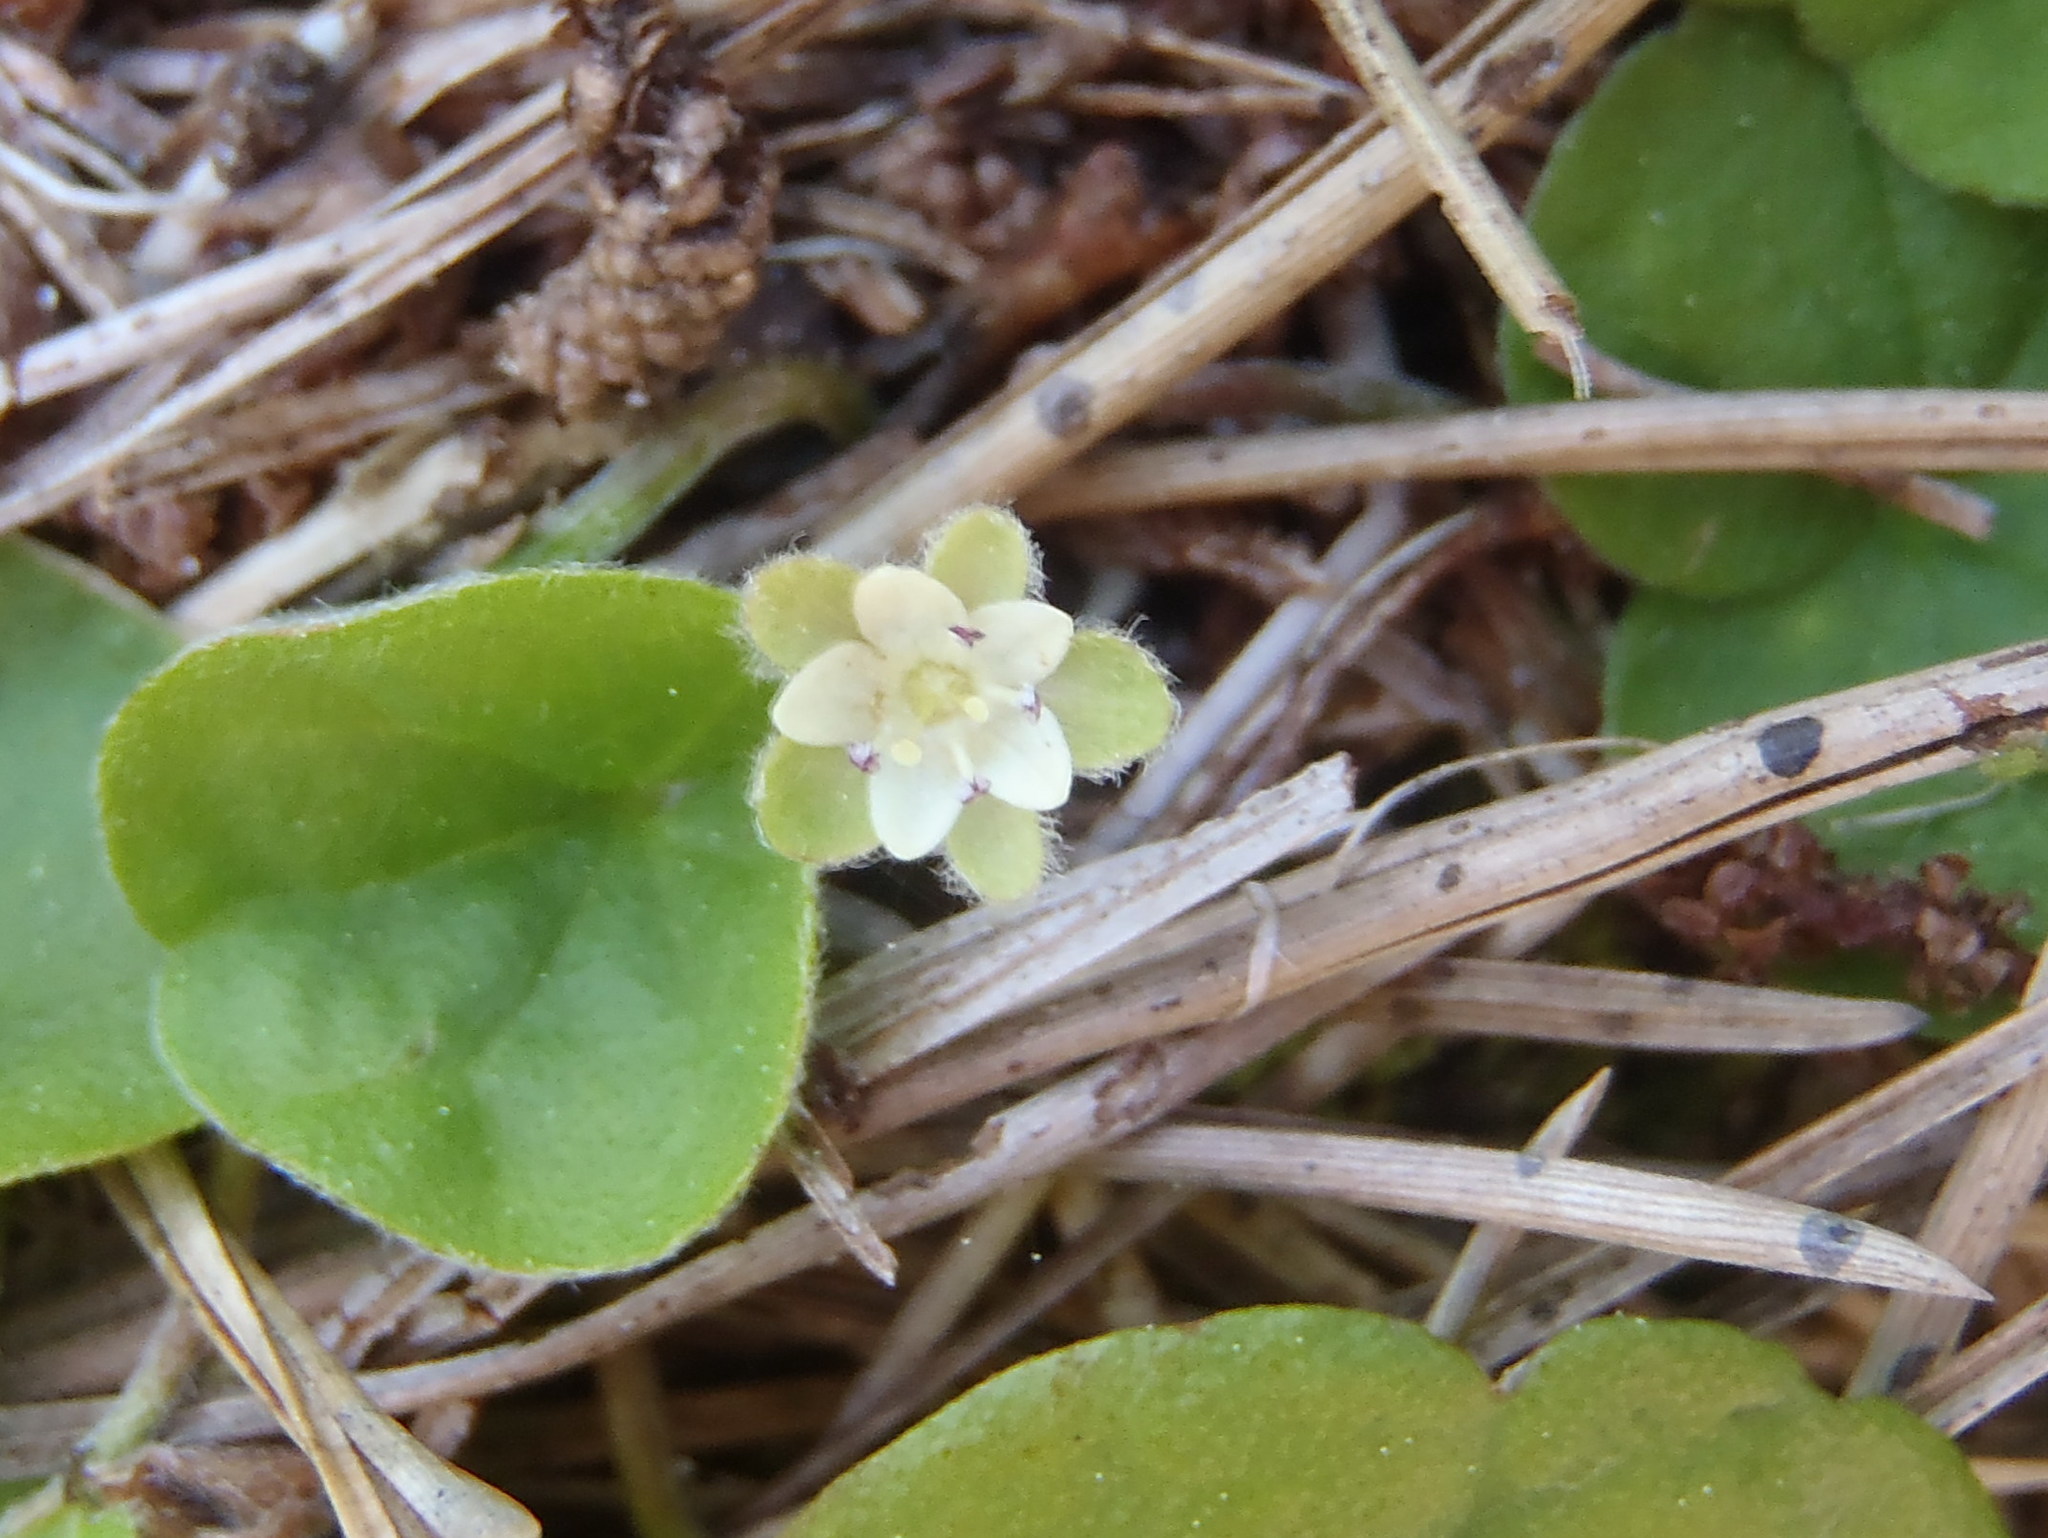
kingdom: Plantae
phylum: Tracheophyta
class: Magnoliopsida
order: Solanales
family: Convolvulaceae
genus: Dichondra
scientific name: Dichondra micrantha
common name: Kidneyweed
